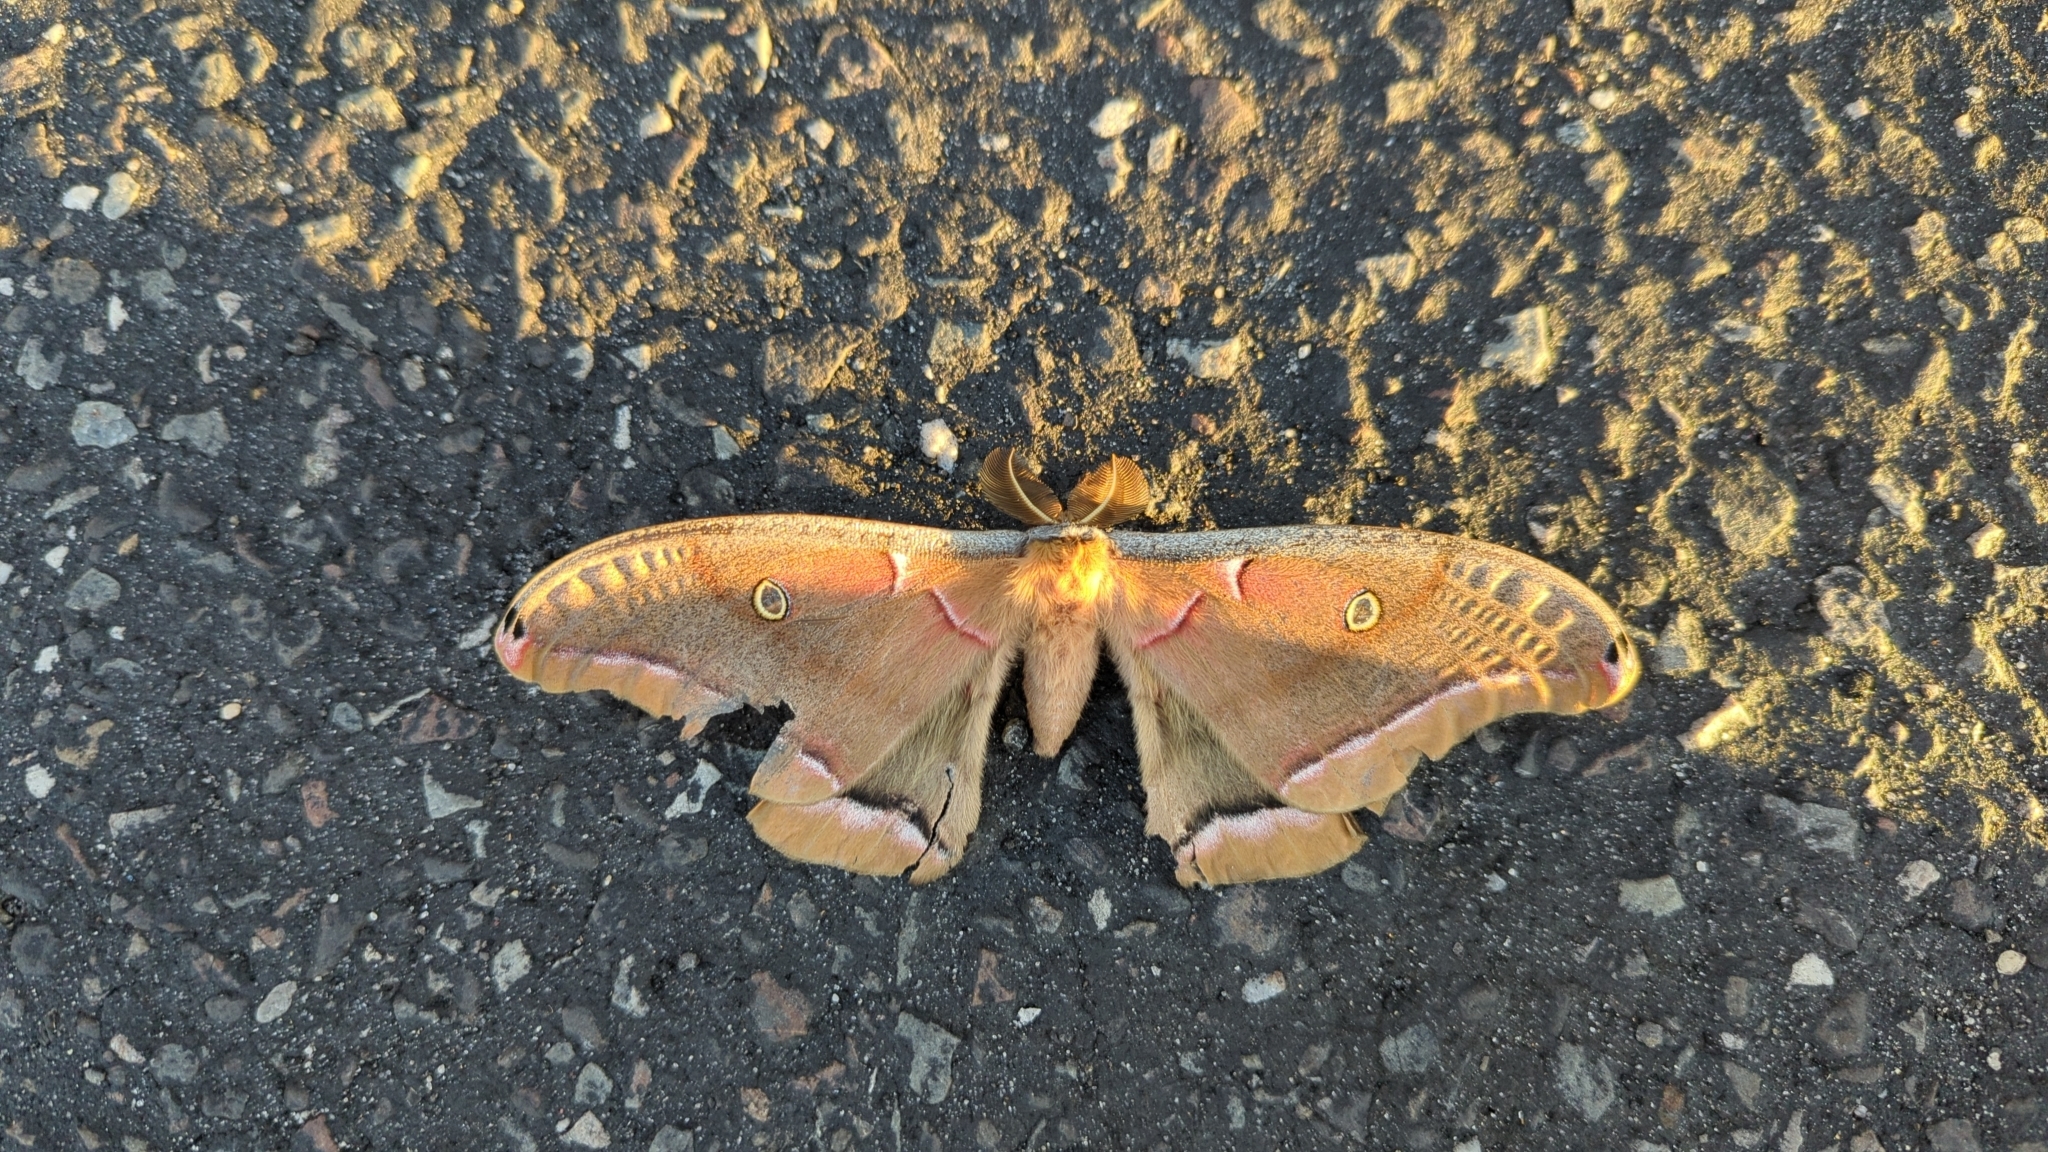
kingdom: Animalia
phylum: Arthropoda
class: Insecta
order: Lepidoptera
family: Saturniidae
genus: Antheraea
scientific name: Antheraea polyphemus
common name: Polyphemus moth
